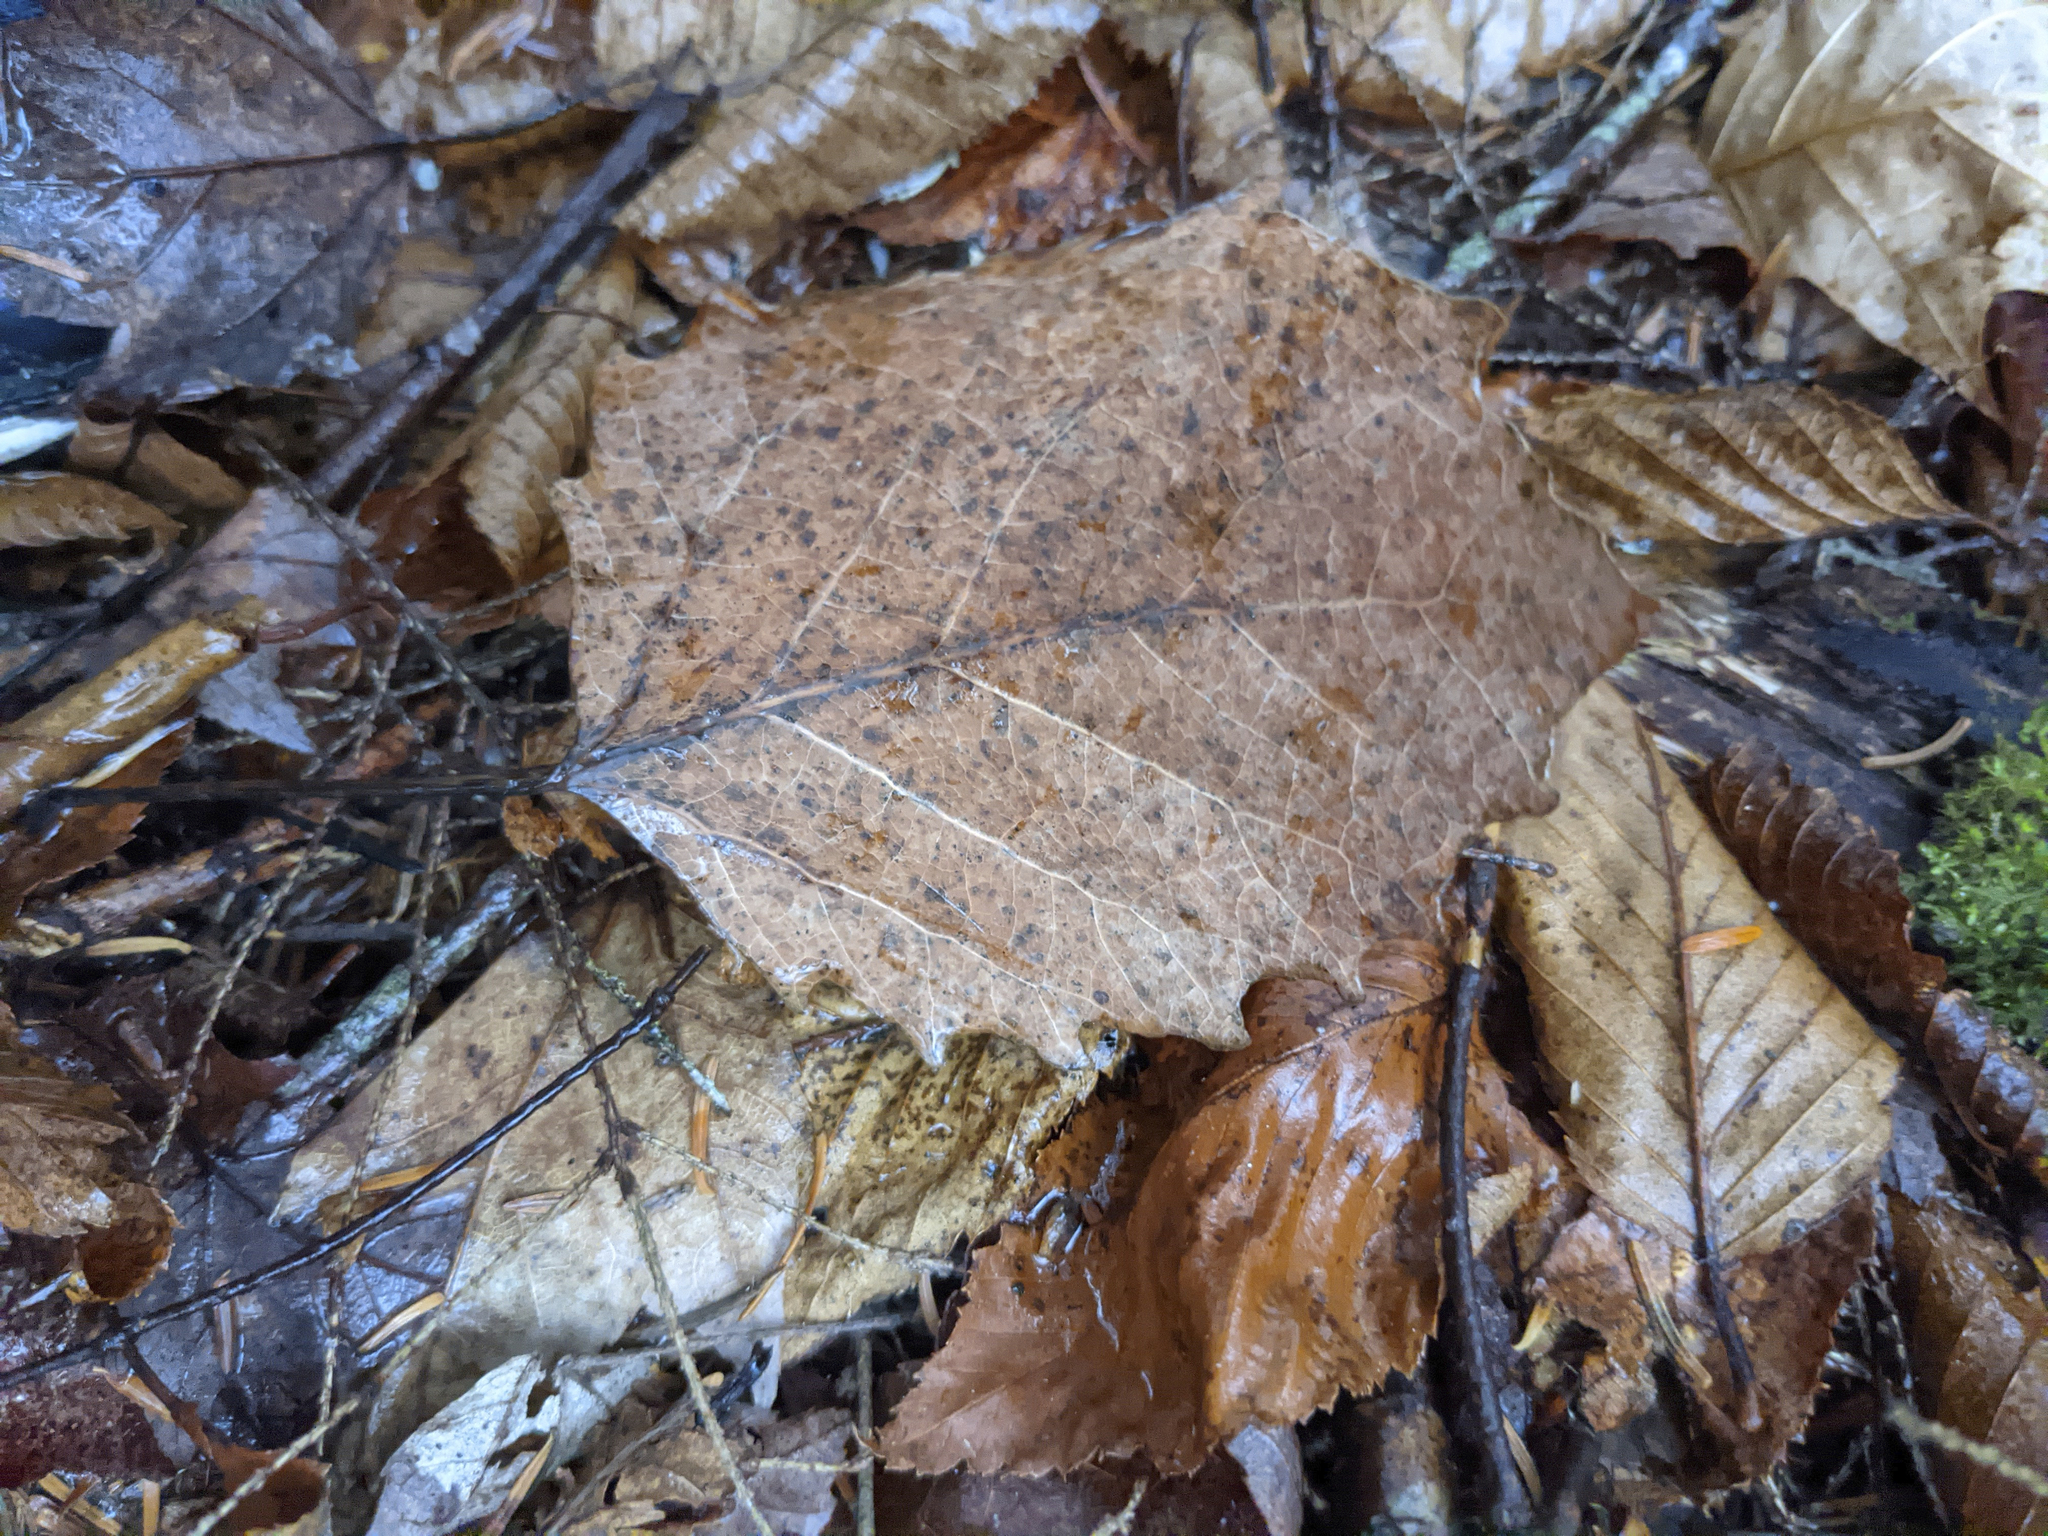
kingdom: Plantae
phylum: Tracheophyta
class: Magnoliopsida
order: Malpighiales
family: Salicaceae
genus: Populus
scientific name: Populus grandidentata
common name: Bigtooth aspen
